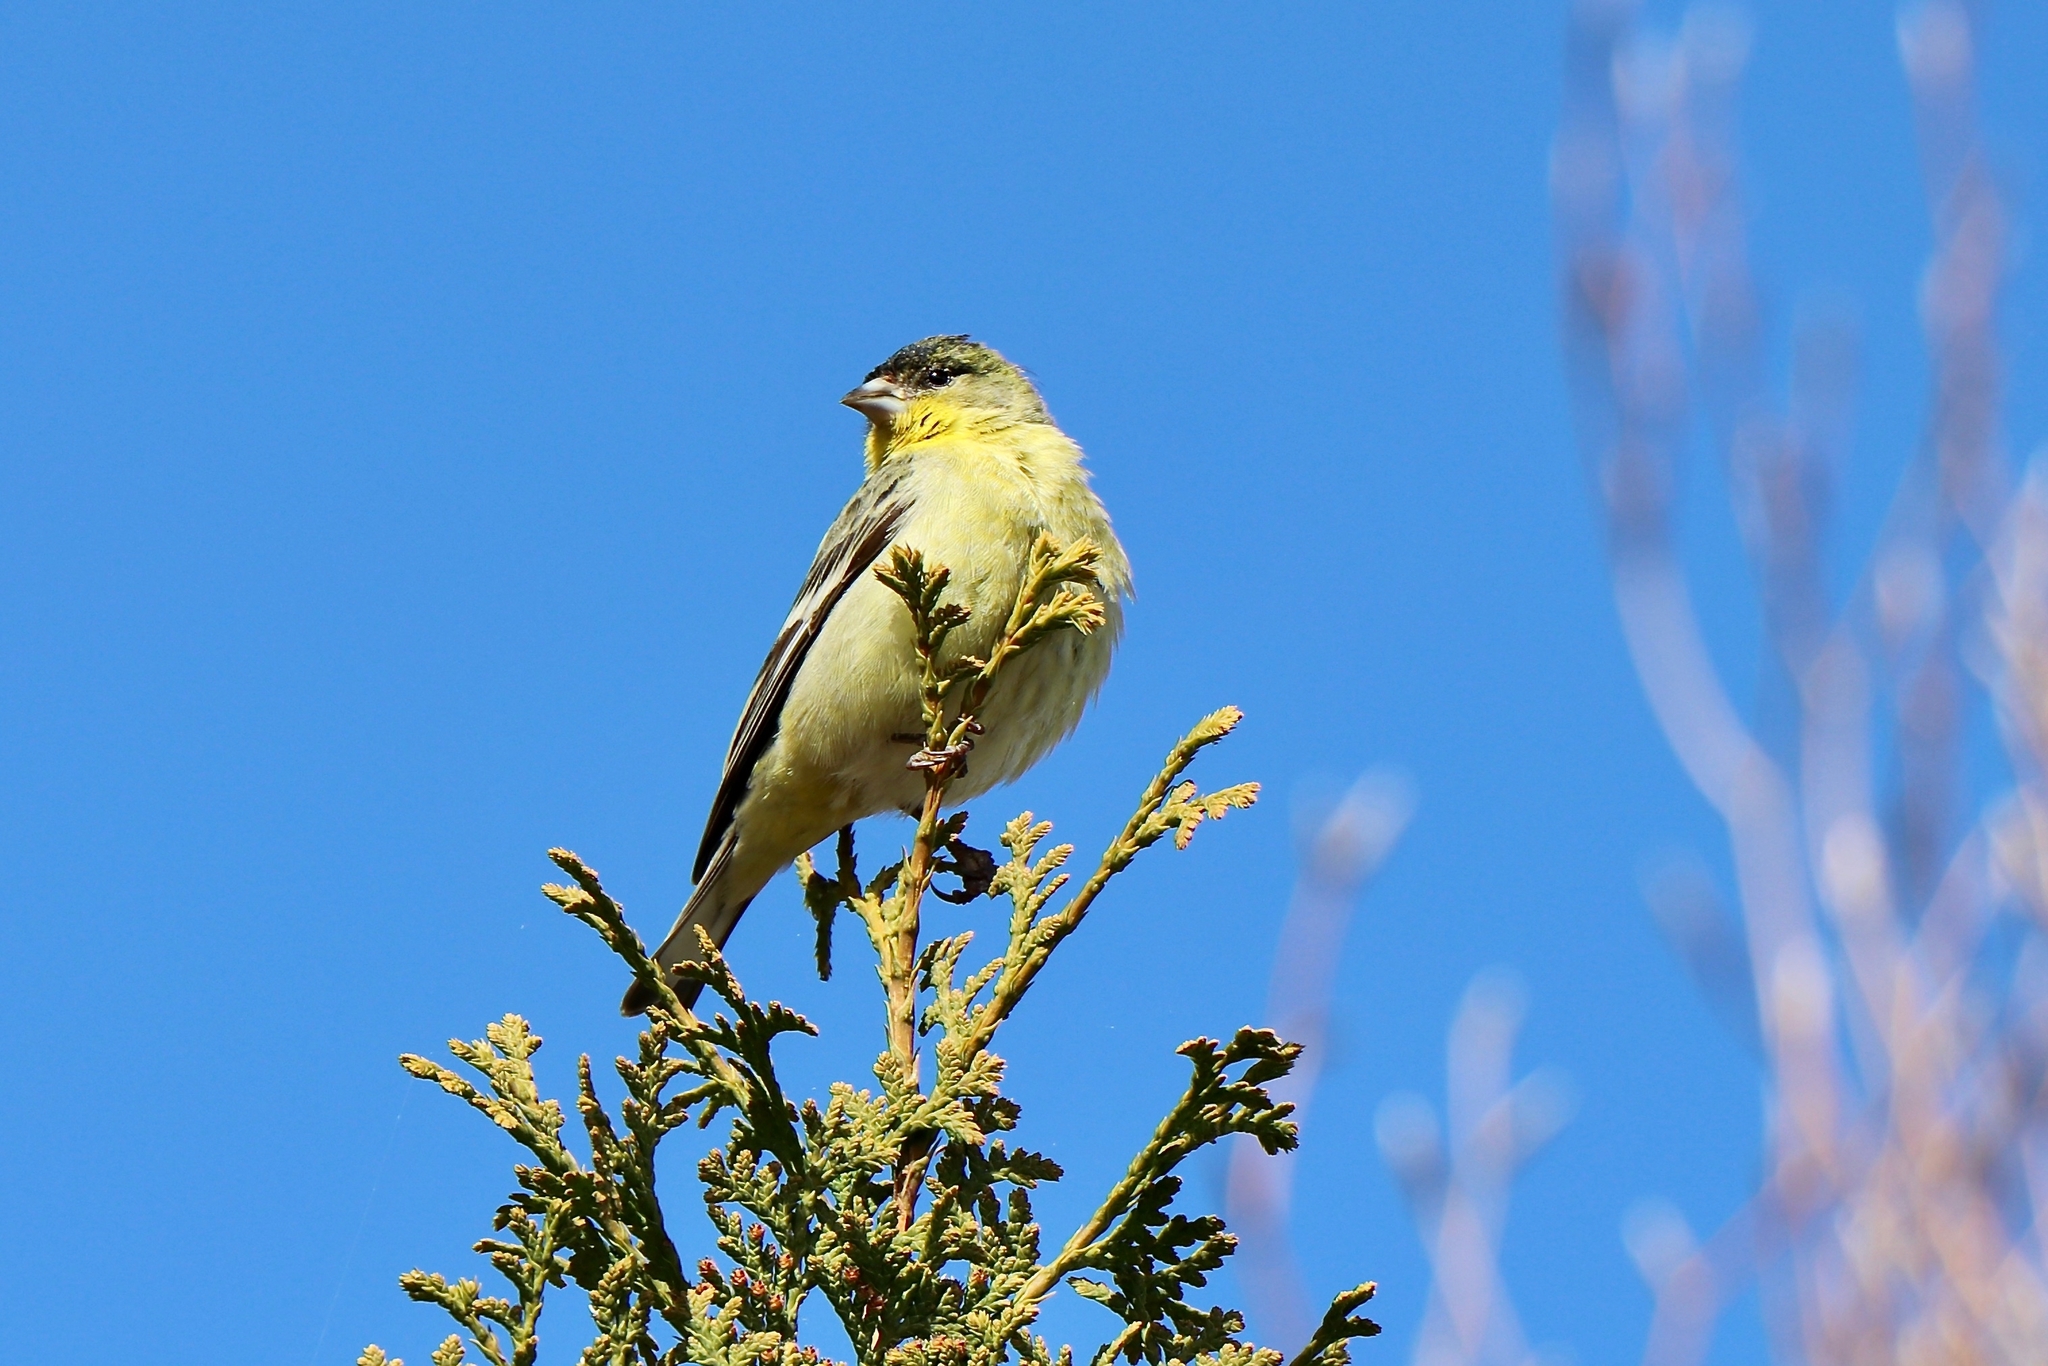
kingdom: Animalia
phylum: Chordata
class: Aves
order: Passeriformes
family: Fringillidae
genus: Spinus
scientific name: Spinus psaltria
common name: Lesser goldfinch
